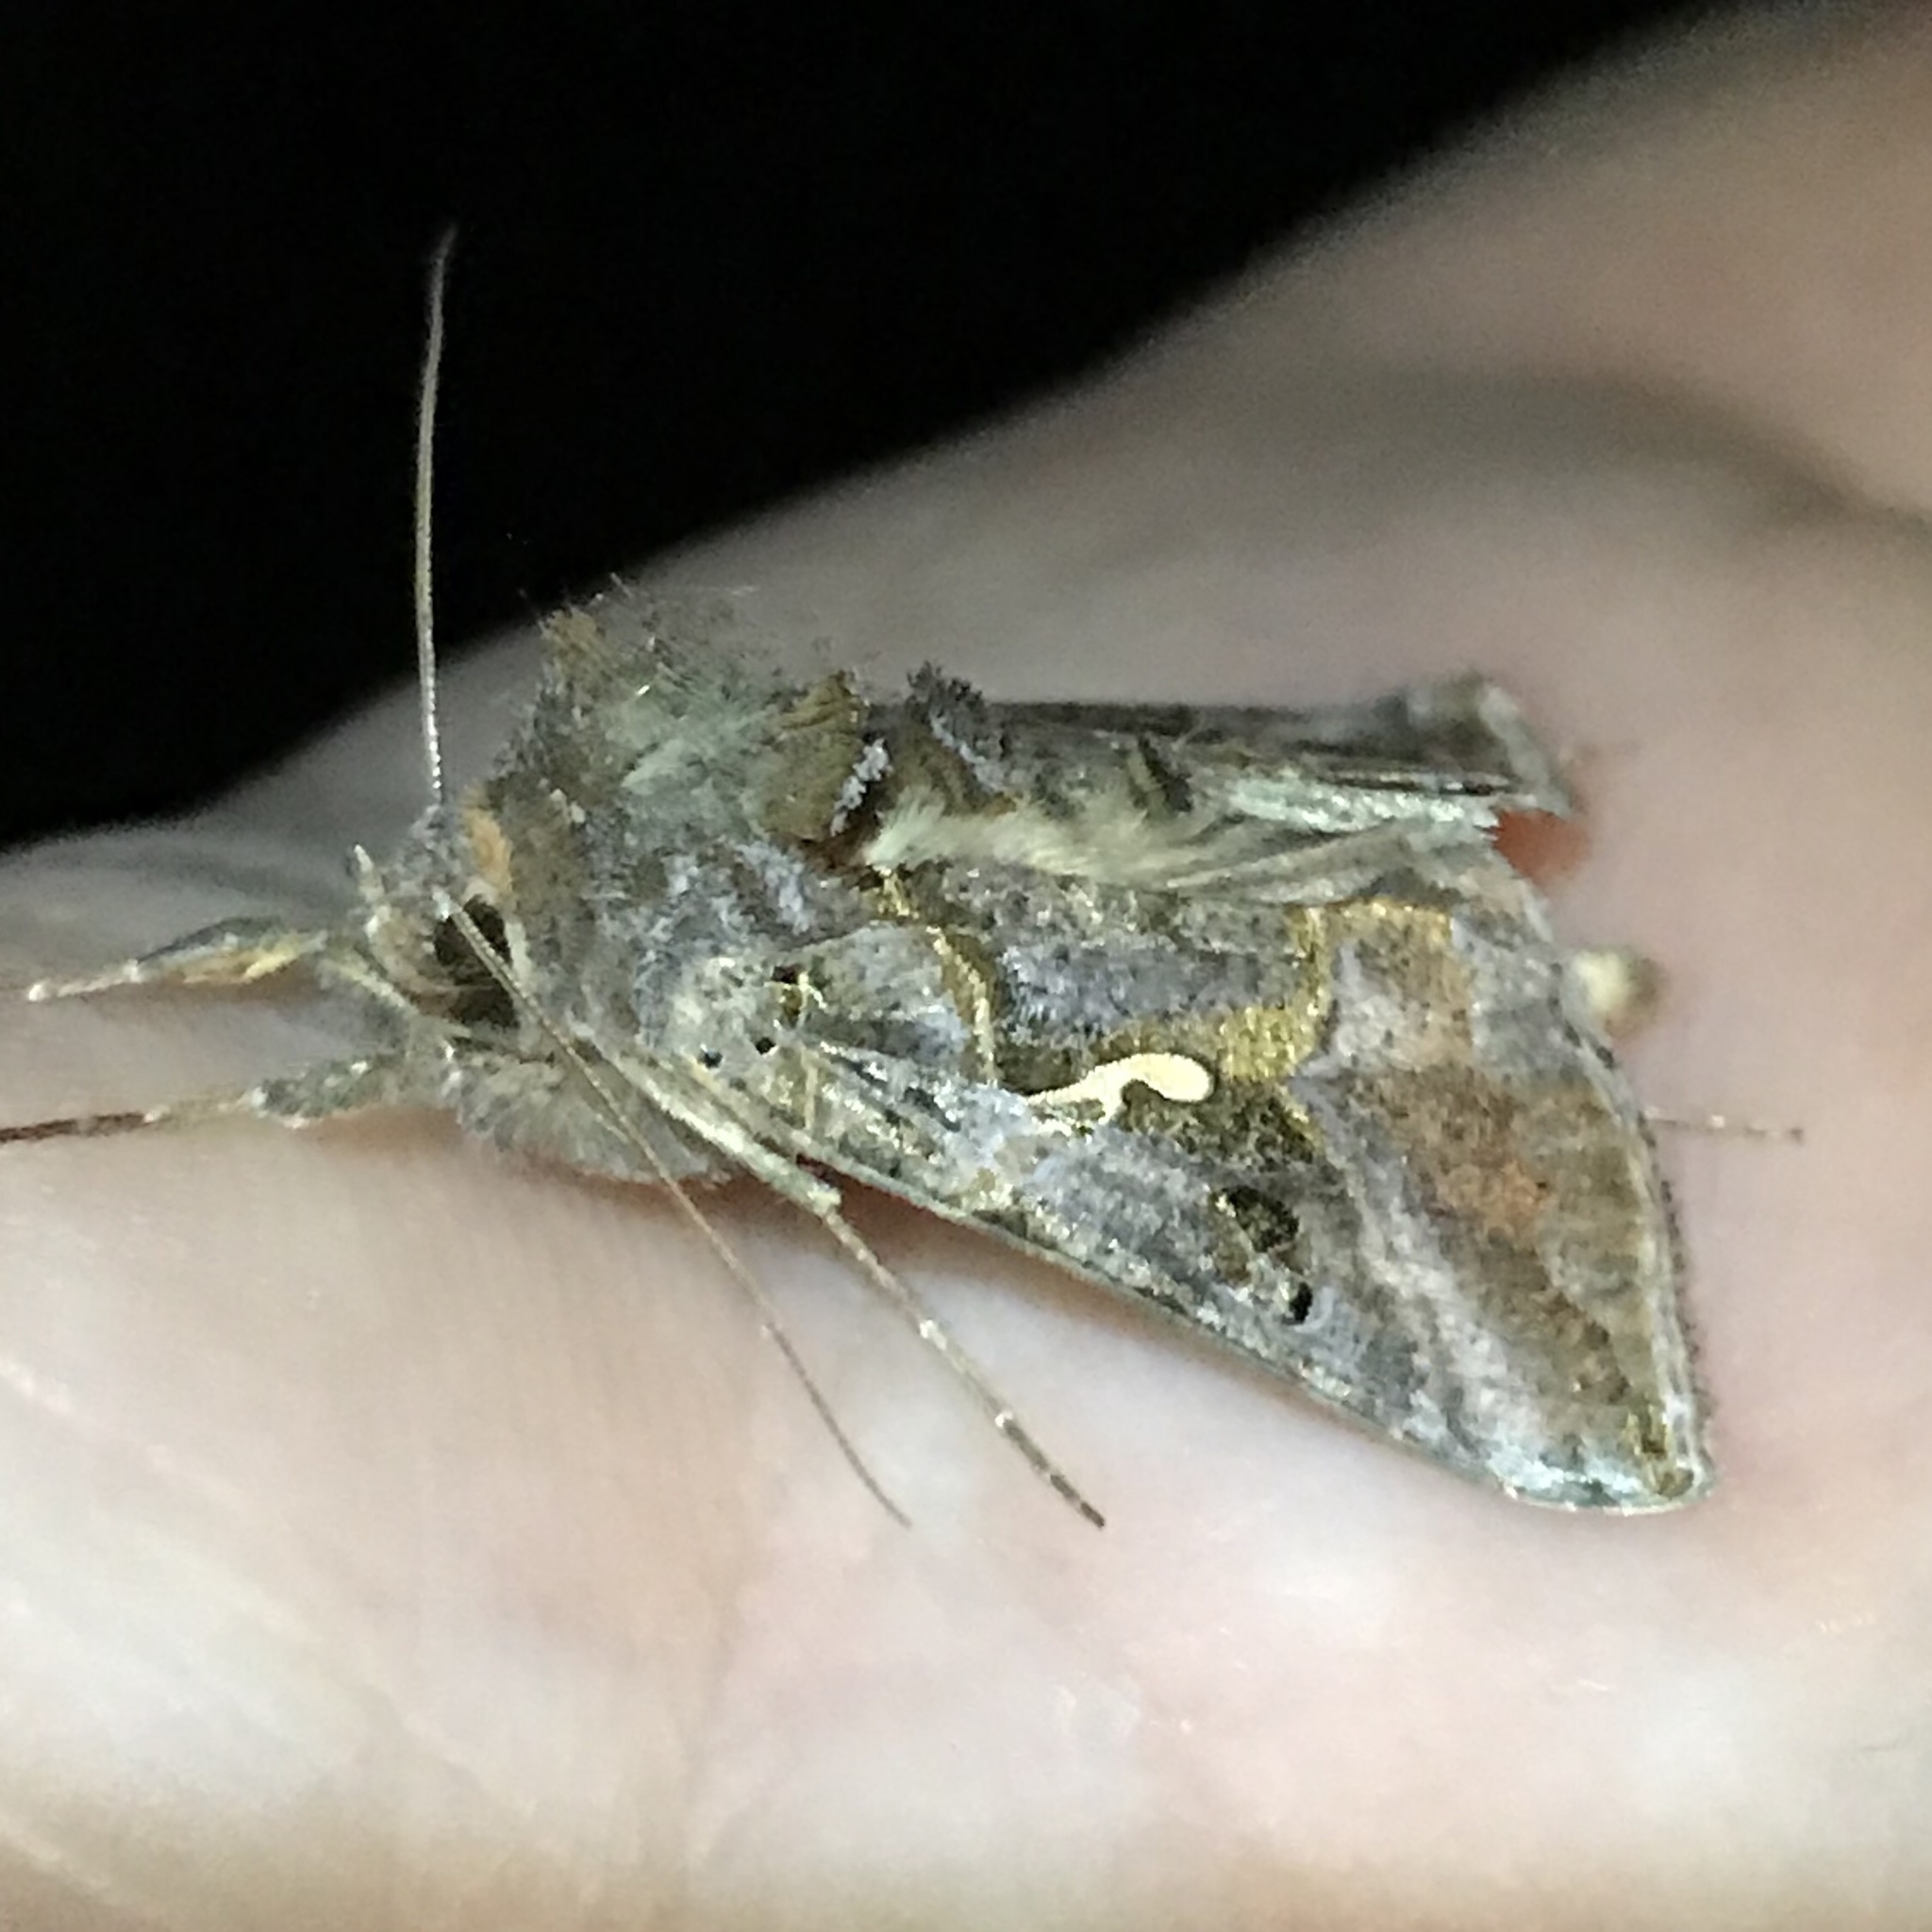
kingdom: Animalia
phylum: Arthropoda
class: Insecta
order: Lepidoptera
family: Noctuidae
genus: Autographa
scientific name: Autographa precationis
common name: Common looper moth
